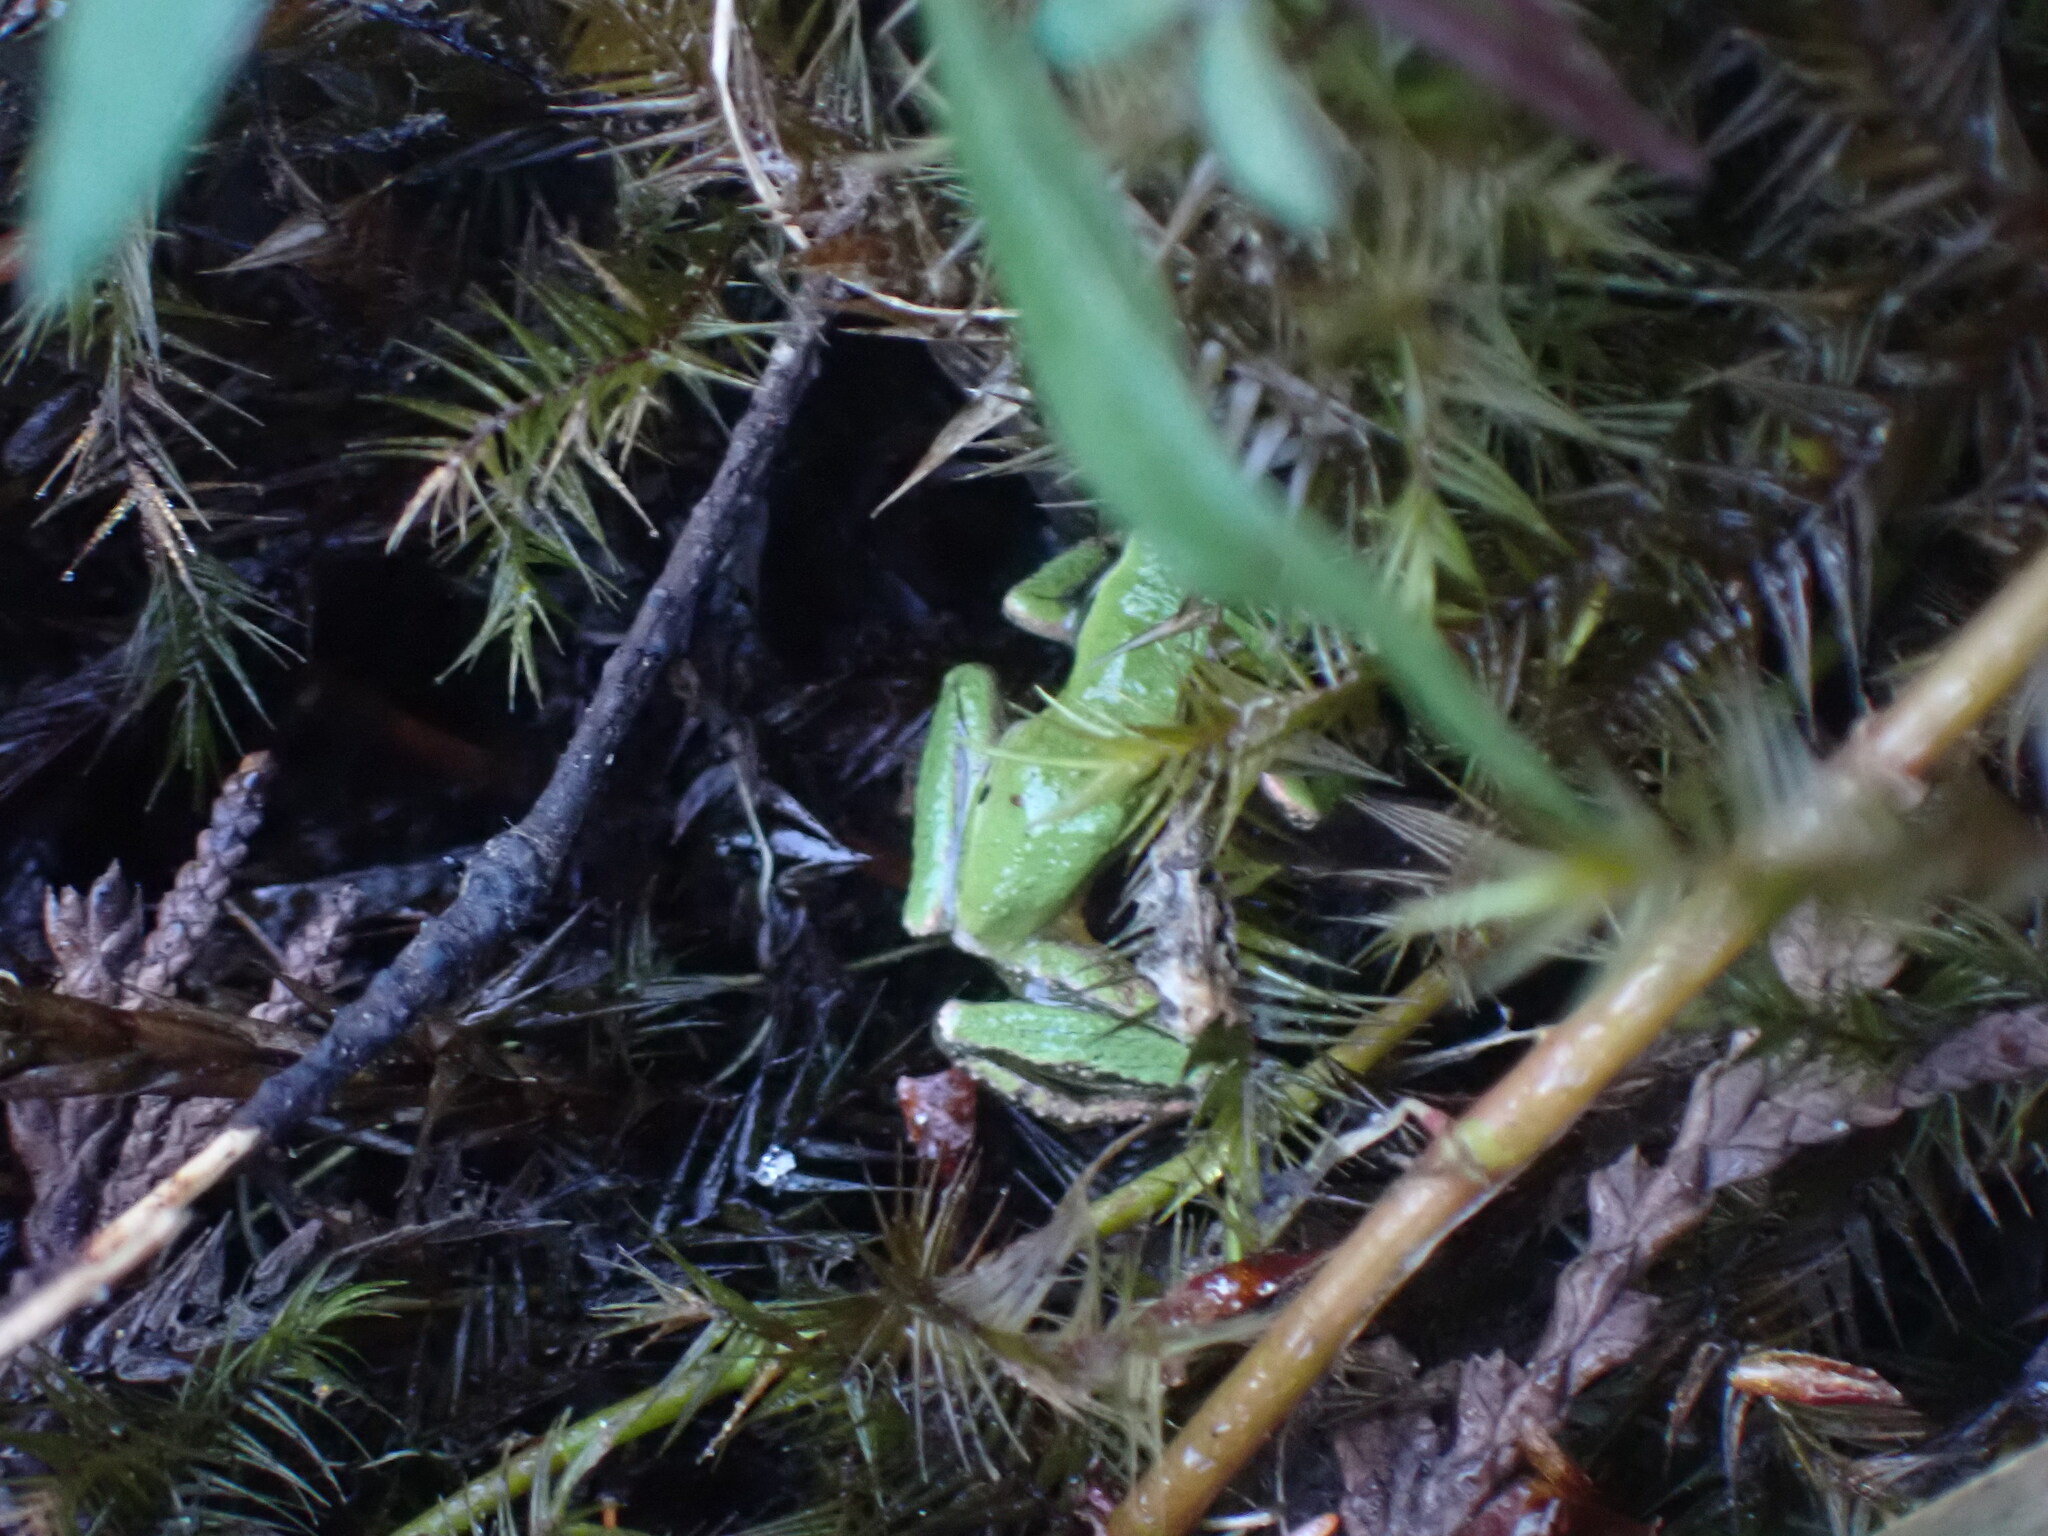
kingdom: Animalia
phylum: Chordata
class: Amphibia
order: Anura
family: Hylidae
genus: Pseudacris
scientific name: Pseudacris regilla
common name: Pacific chorus frog
